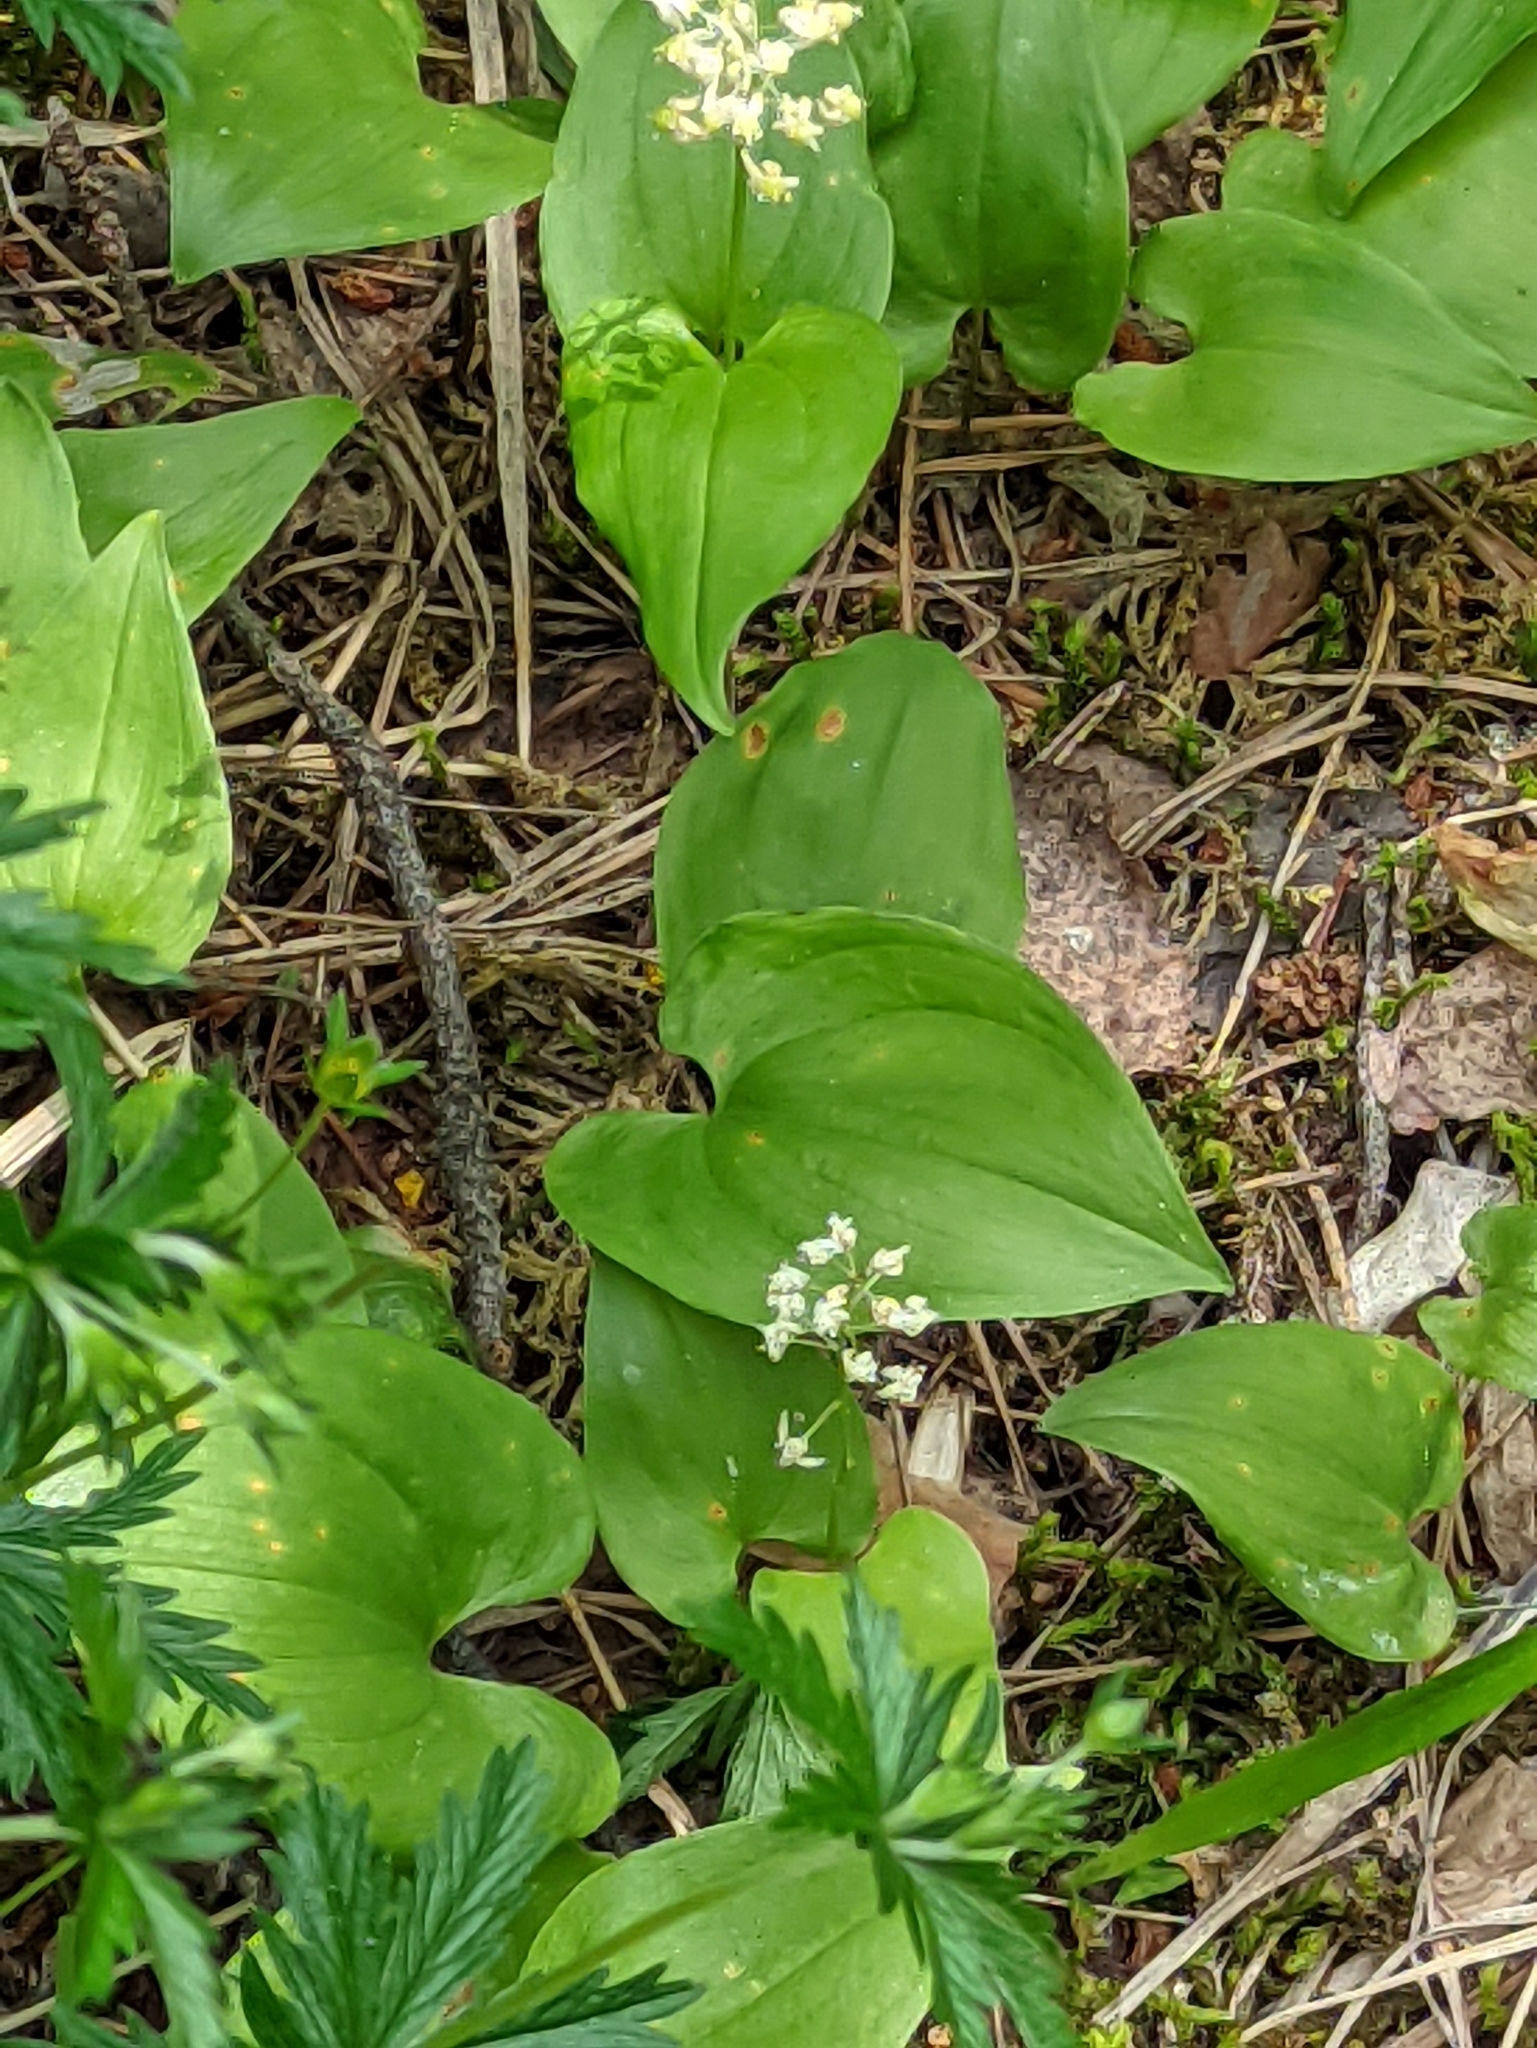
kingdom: Plantae
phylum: Tracheophyta
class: Liliopsida
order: Asparagales
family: Asparagaceae
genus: Maianthemum
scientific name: Maianthemum bifolium
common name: May lily
